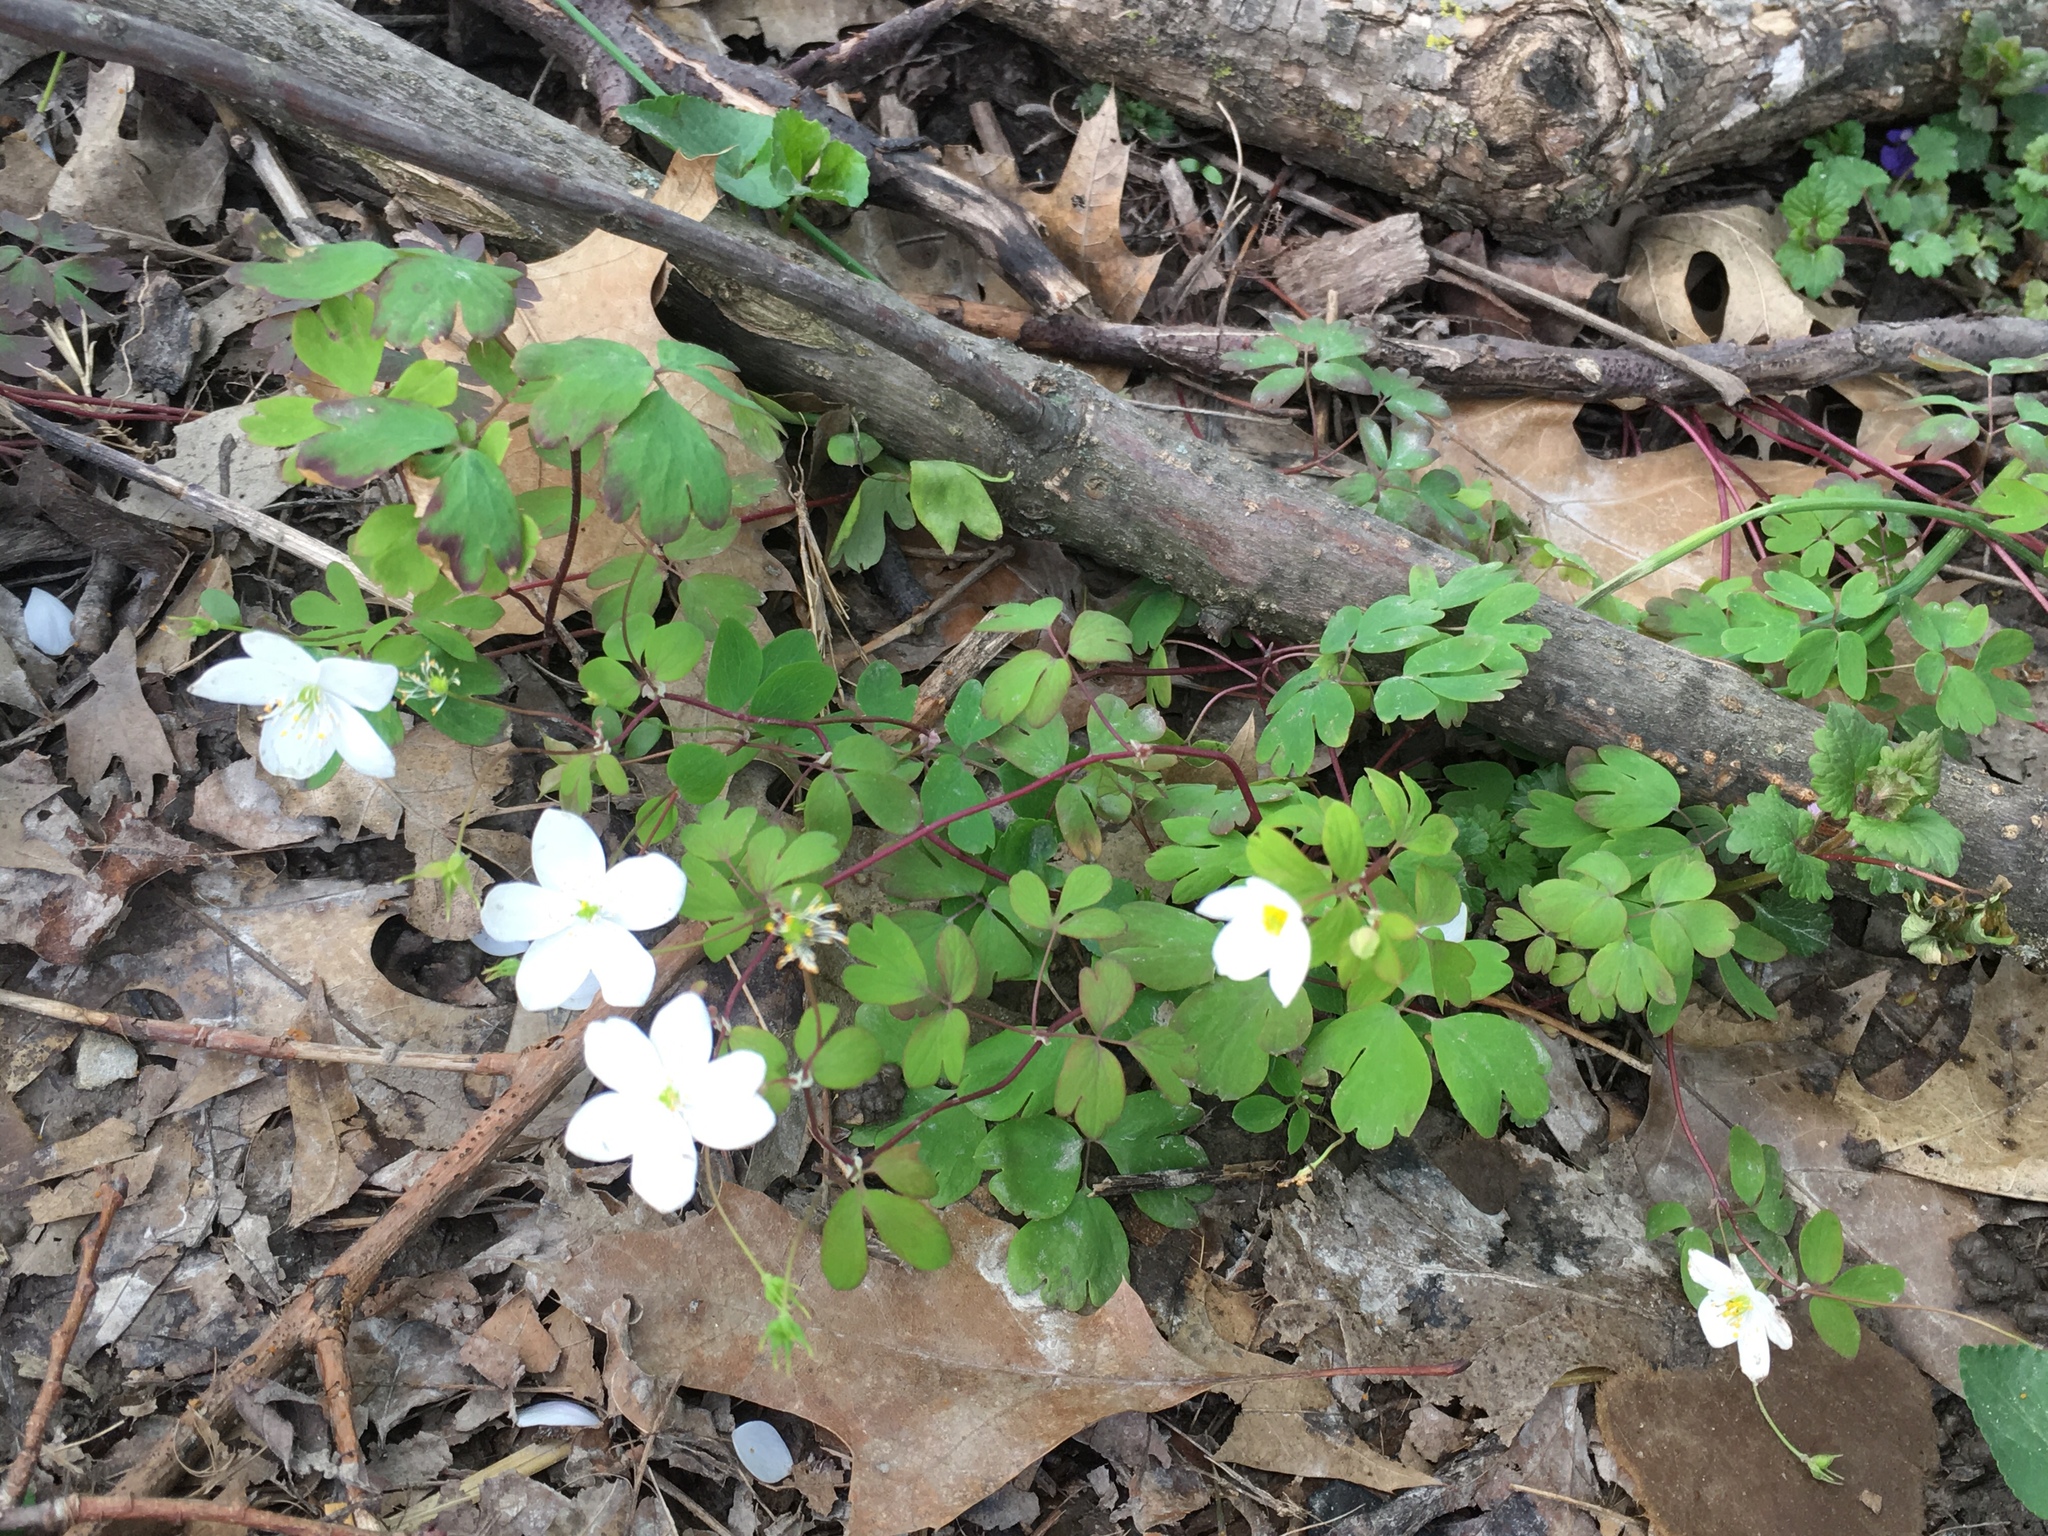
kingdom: Plantae
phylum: Tracheophyta
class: Magnoliopsida
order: Ranunculales
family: Ranunculaceae
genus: Enemion
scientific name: Enemion biternatum
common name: Eastern false rue-anemone
